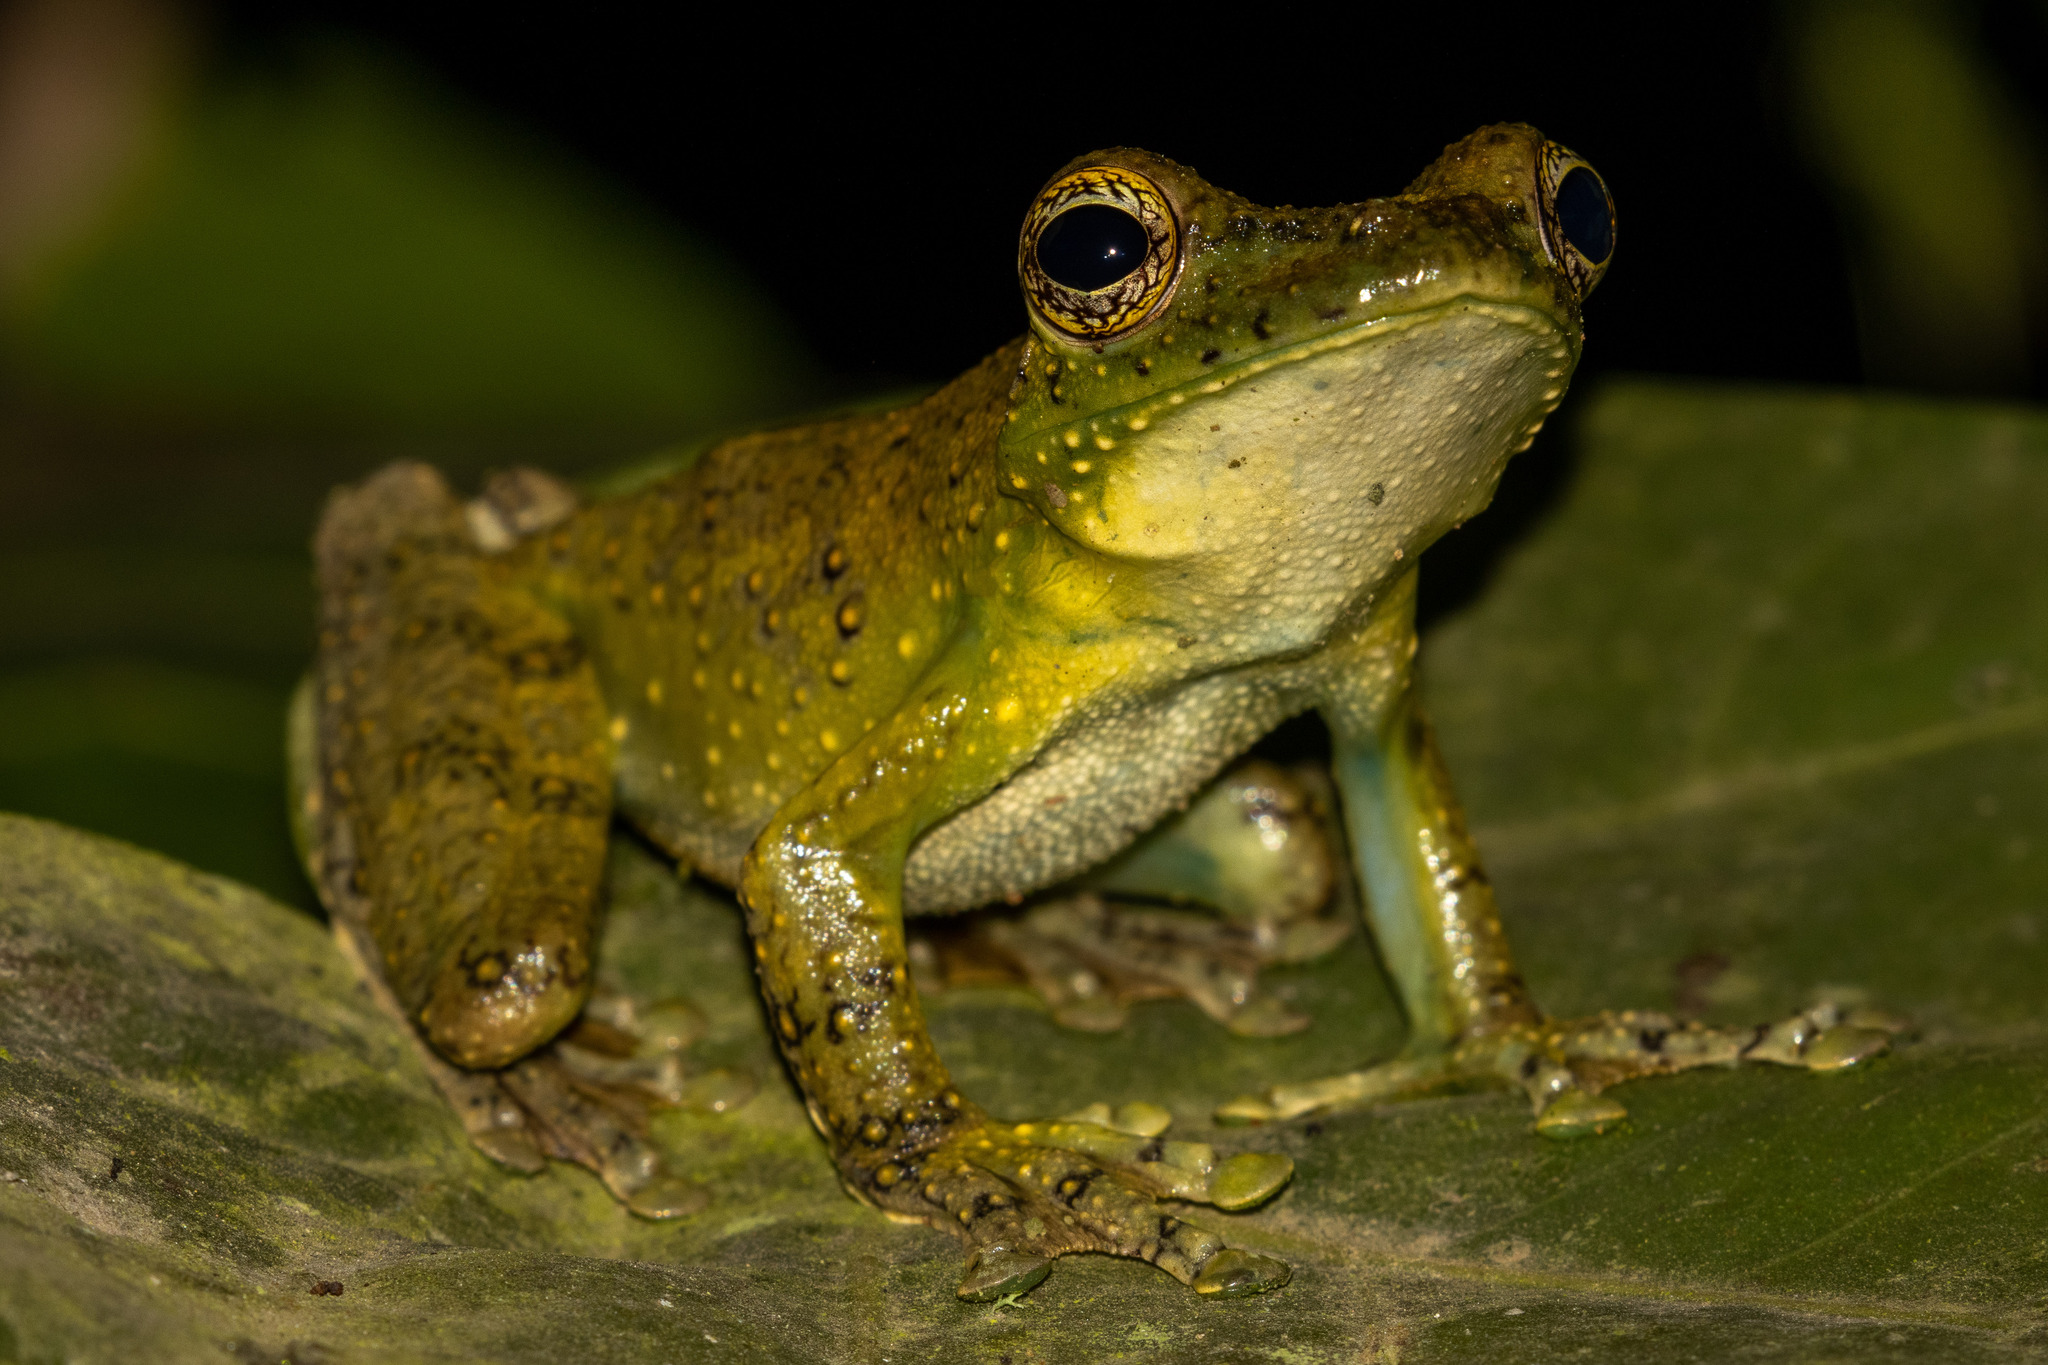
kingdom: Animalia
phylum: Chordata
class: Amphibia
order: Anura
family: Hylidae
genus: Itapotihyla
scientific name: Itapotihyla langsdorffii
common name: Ocellated treefrog
